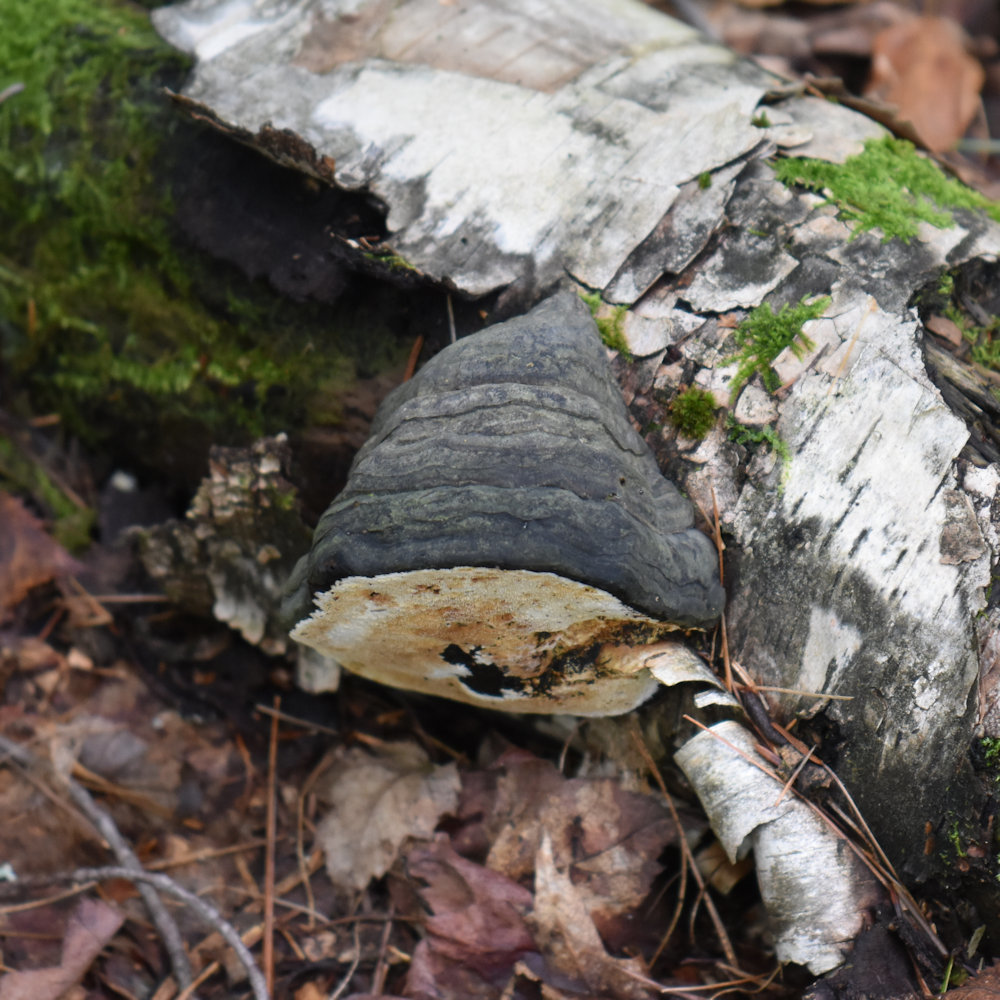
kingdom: Fungi
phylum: Basidiomycota
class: Agaricomycetes
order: Polyporales
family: Polyporaceae
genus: Fomes
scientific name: Fomes fomentarius
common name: Hoof fungus
